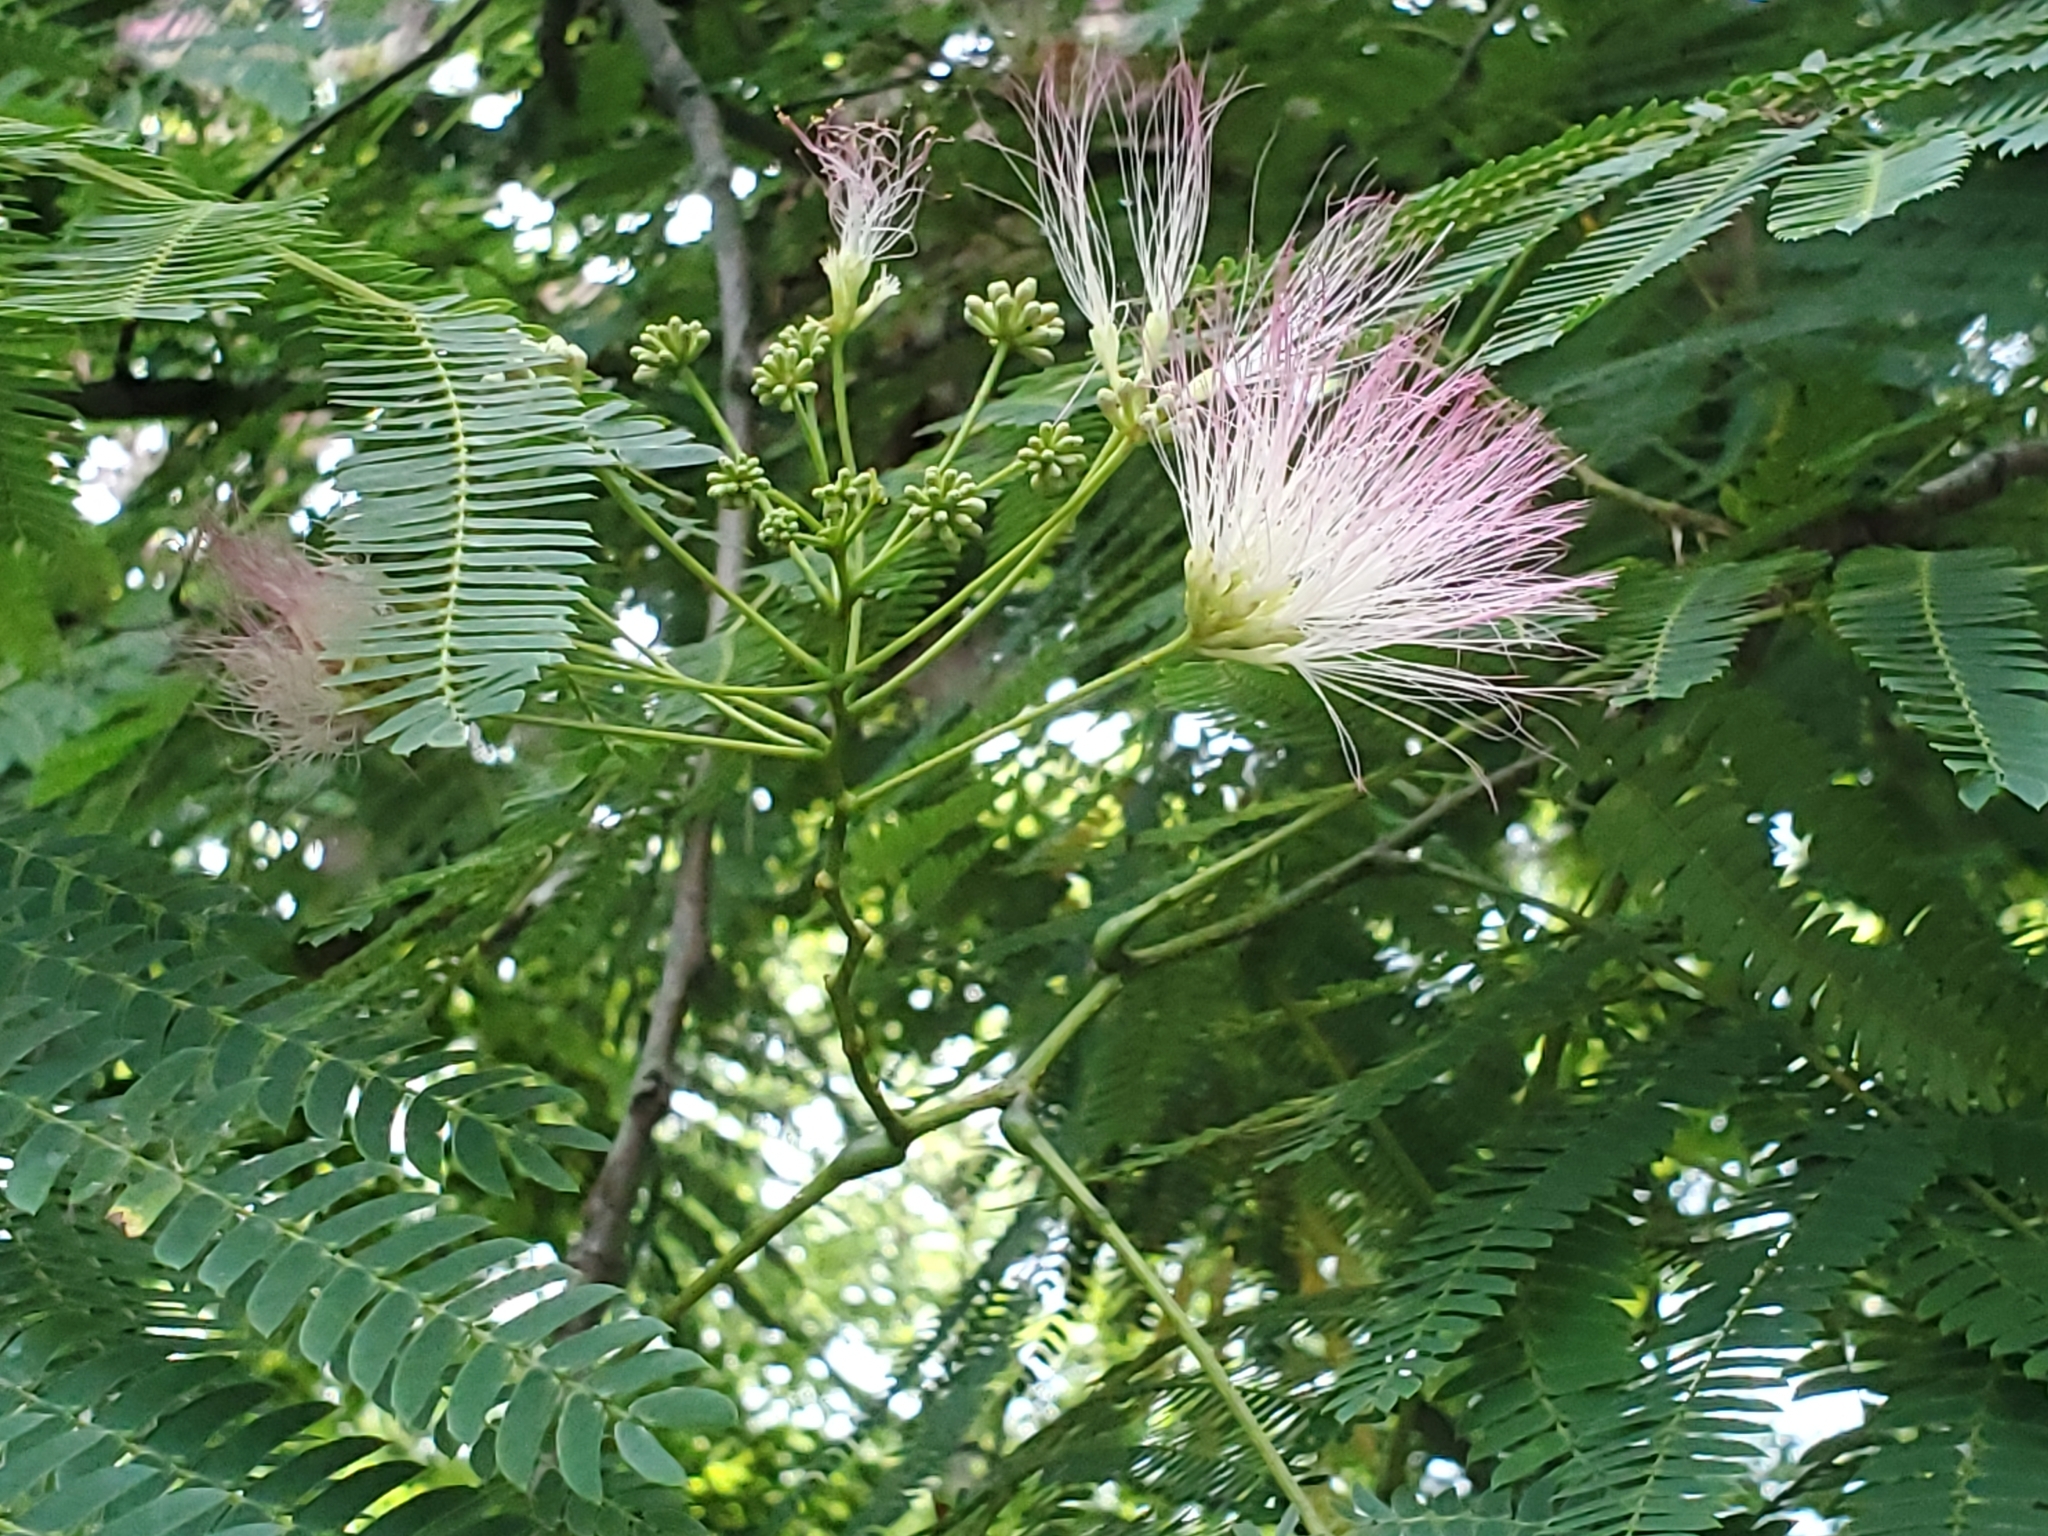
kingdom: Plantae
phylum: Tracheophyta
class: Magnoliopsida
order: Fabales
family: Fabaceae
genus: Albizia
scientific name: Albizia julibrissin
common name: Silktree
